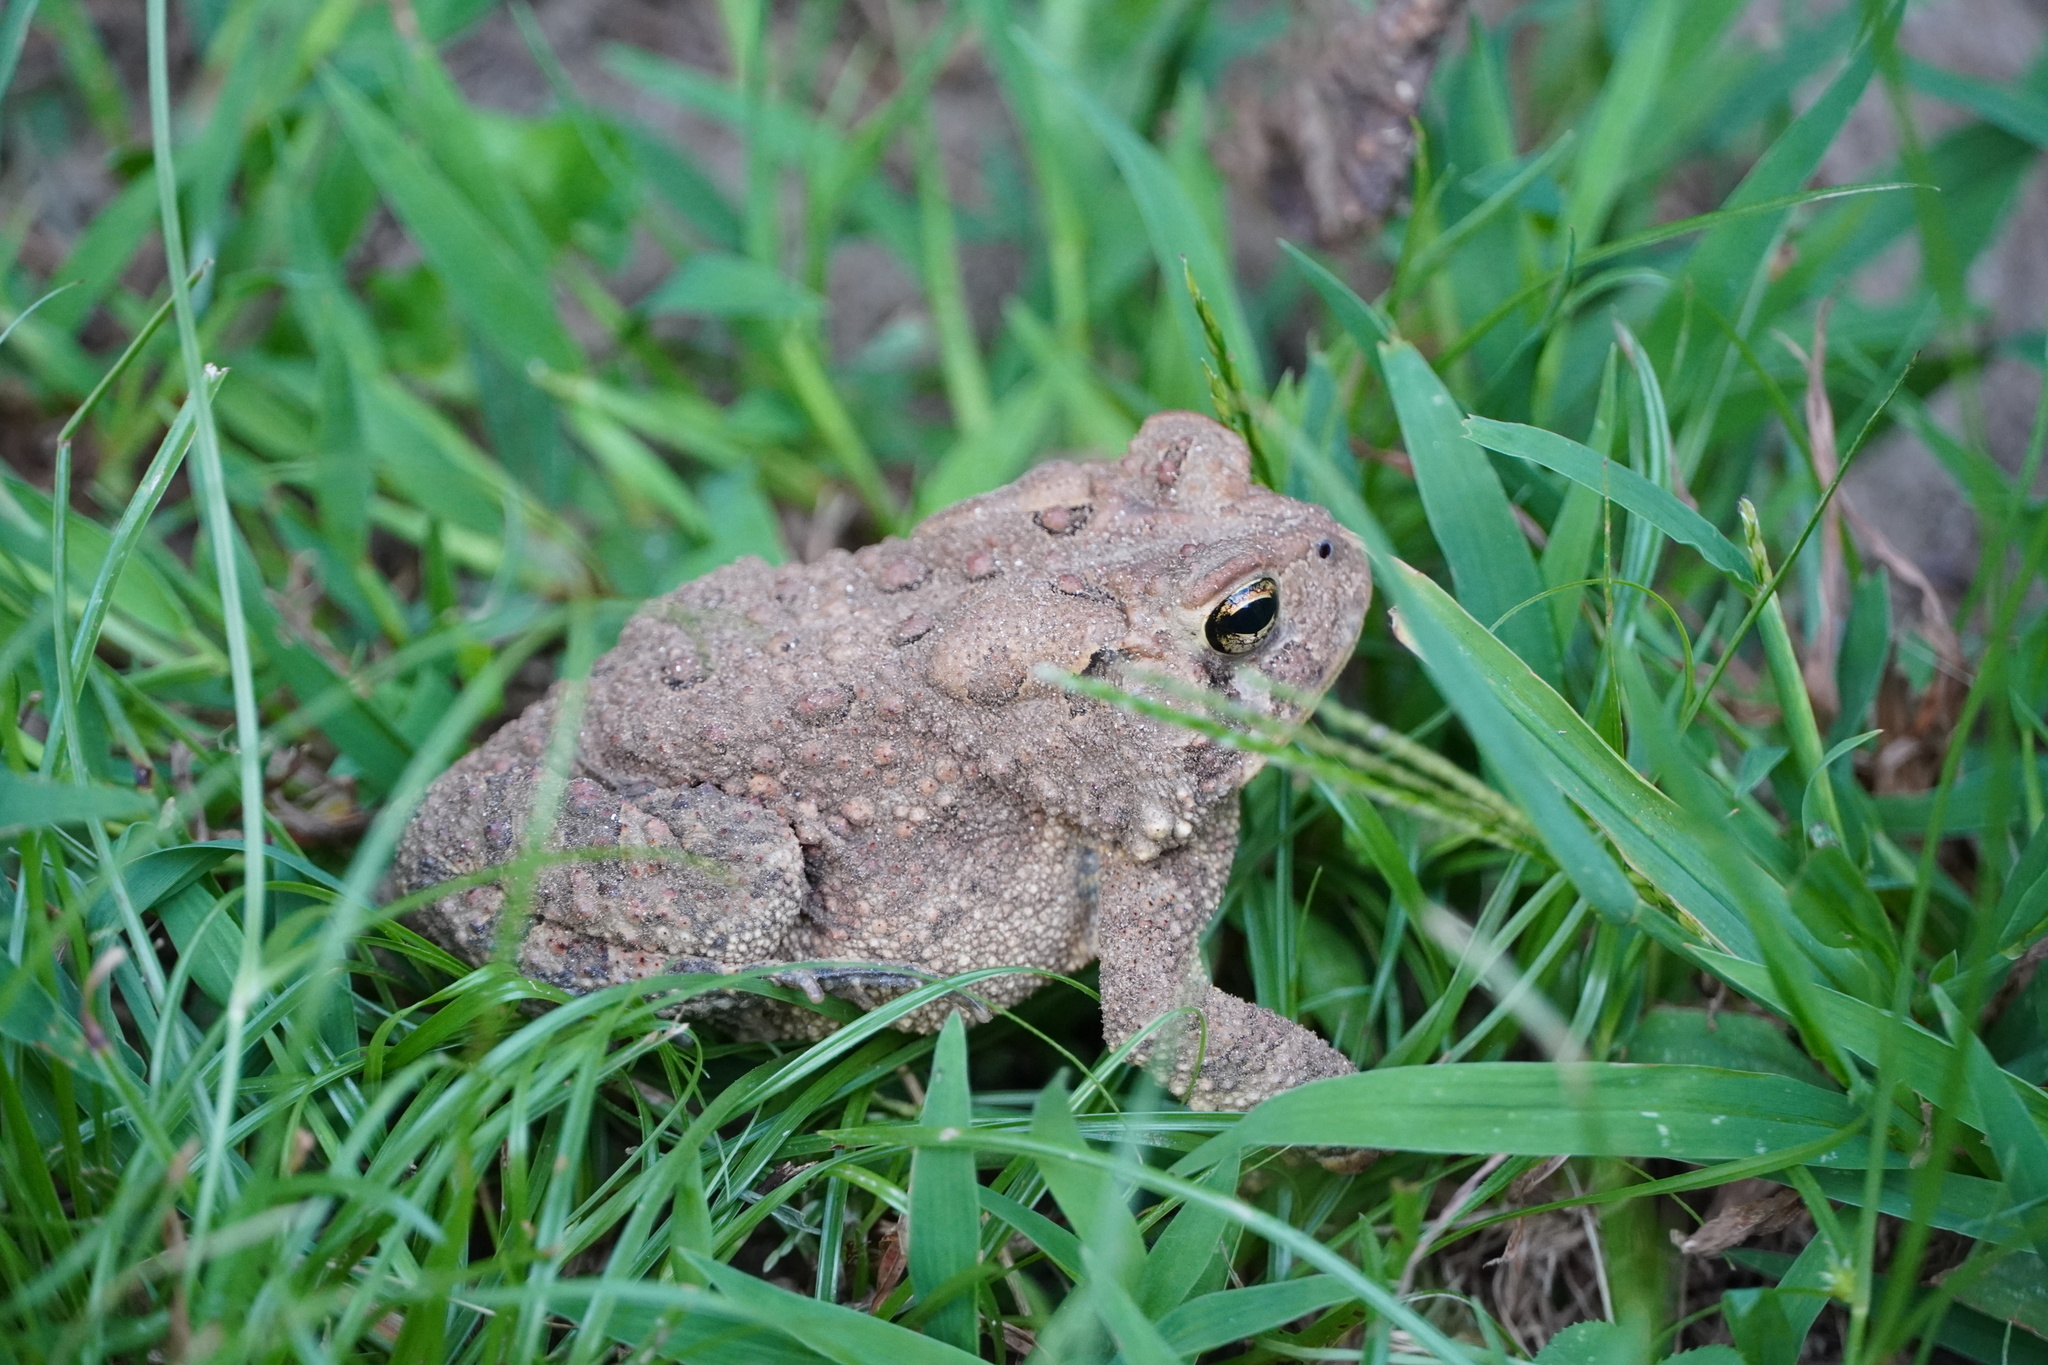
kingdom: Animalia
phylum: Chordata
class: Amphibia
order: Anura
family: Bufonidae
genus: Anaxyrus
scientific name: Anaxyrus americanus
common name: American toad
